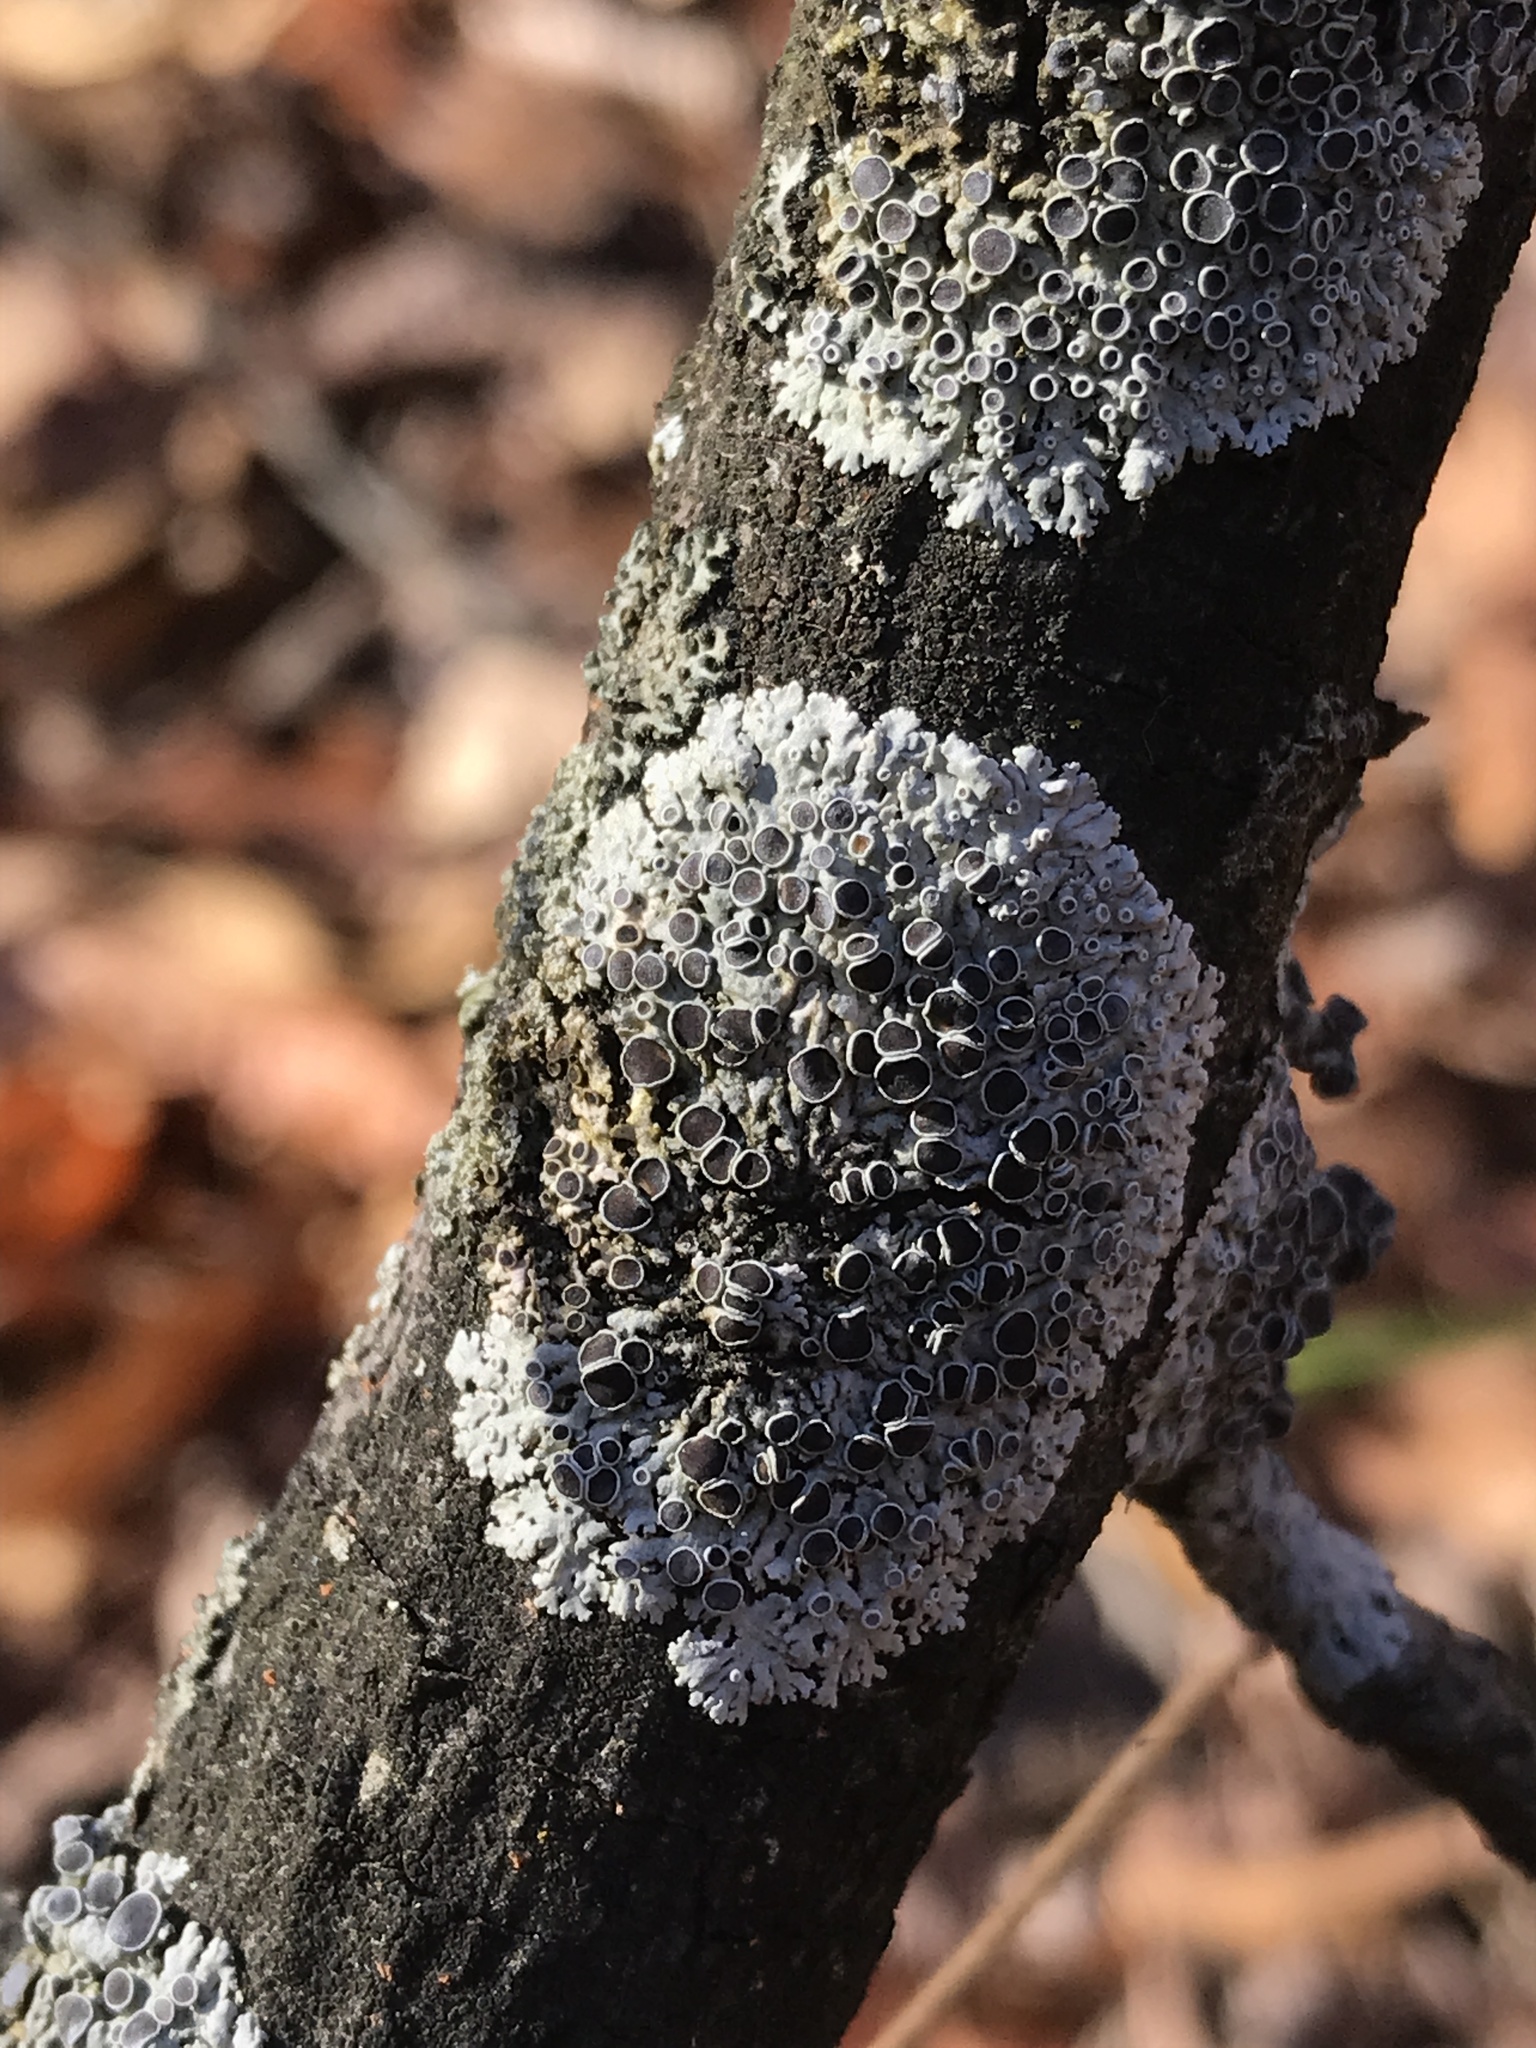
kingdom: Fungi
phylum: Ascomycota
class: Lecanoromycetes
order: Caliciales
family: Physciaceae
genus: Physcia
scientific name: Physcia alnophila
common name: Outward-looking rosette lichen
